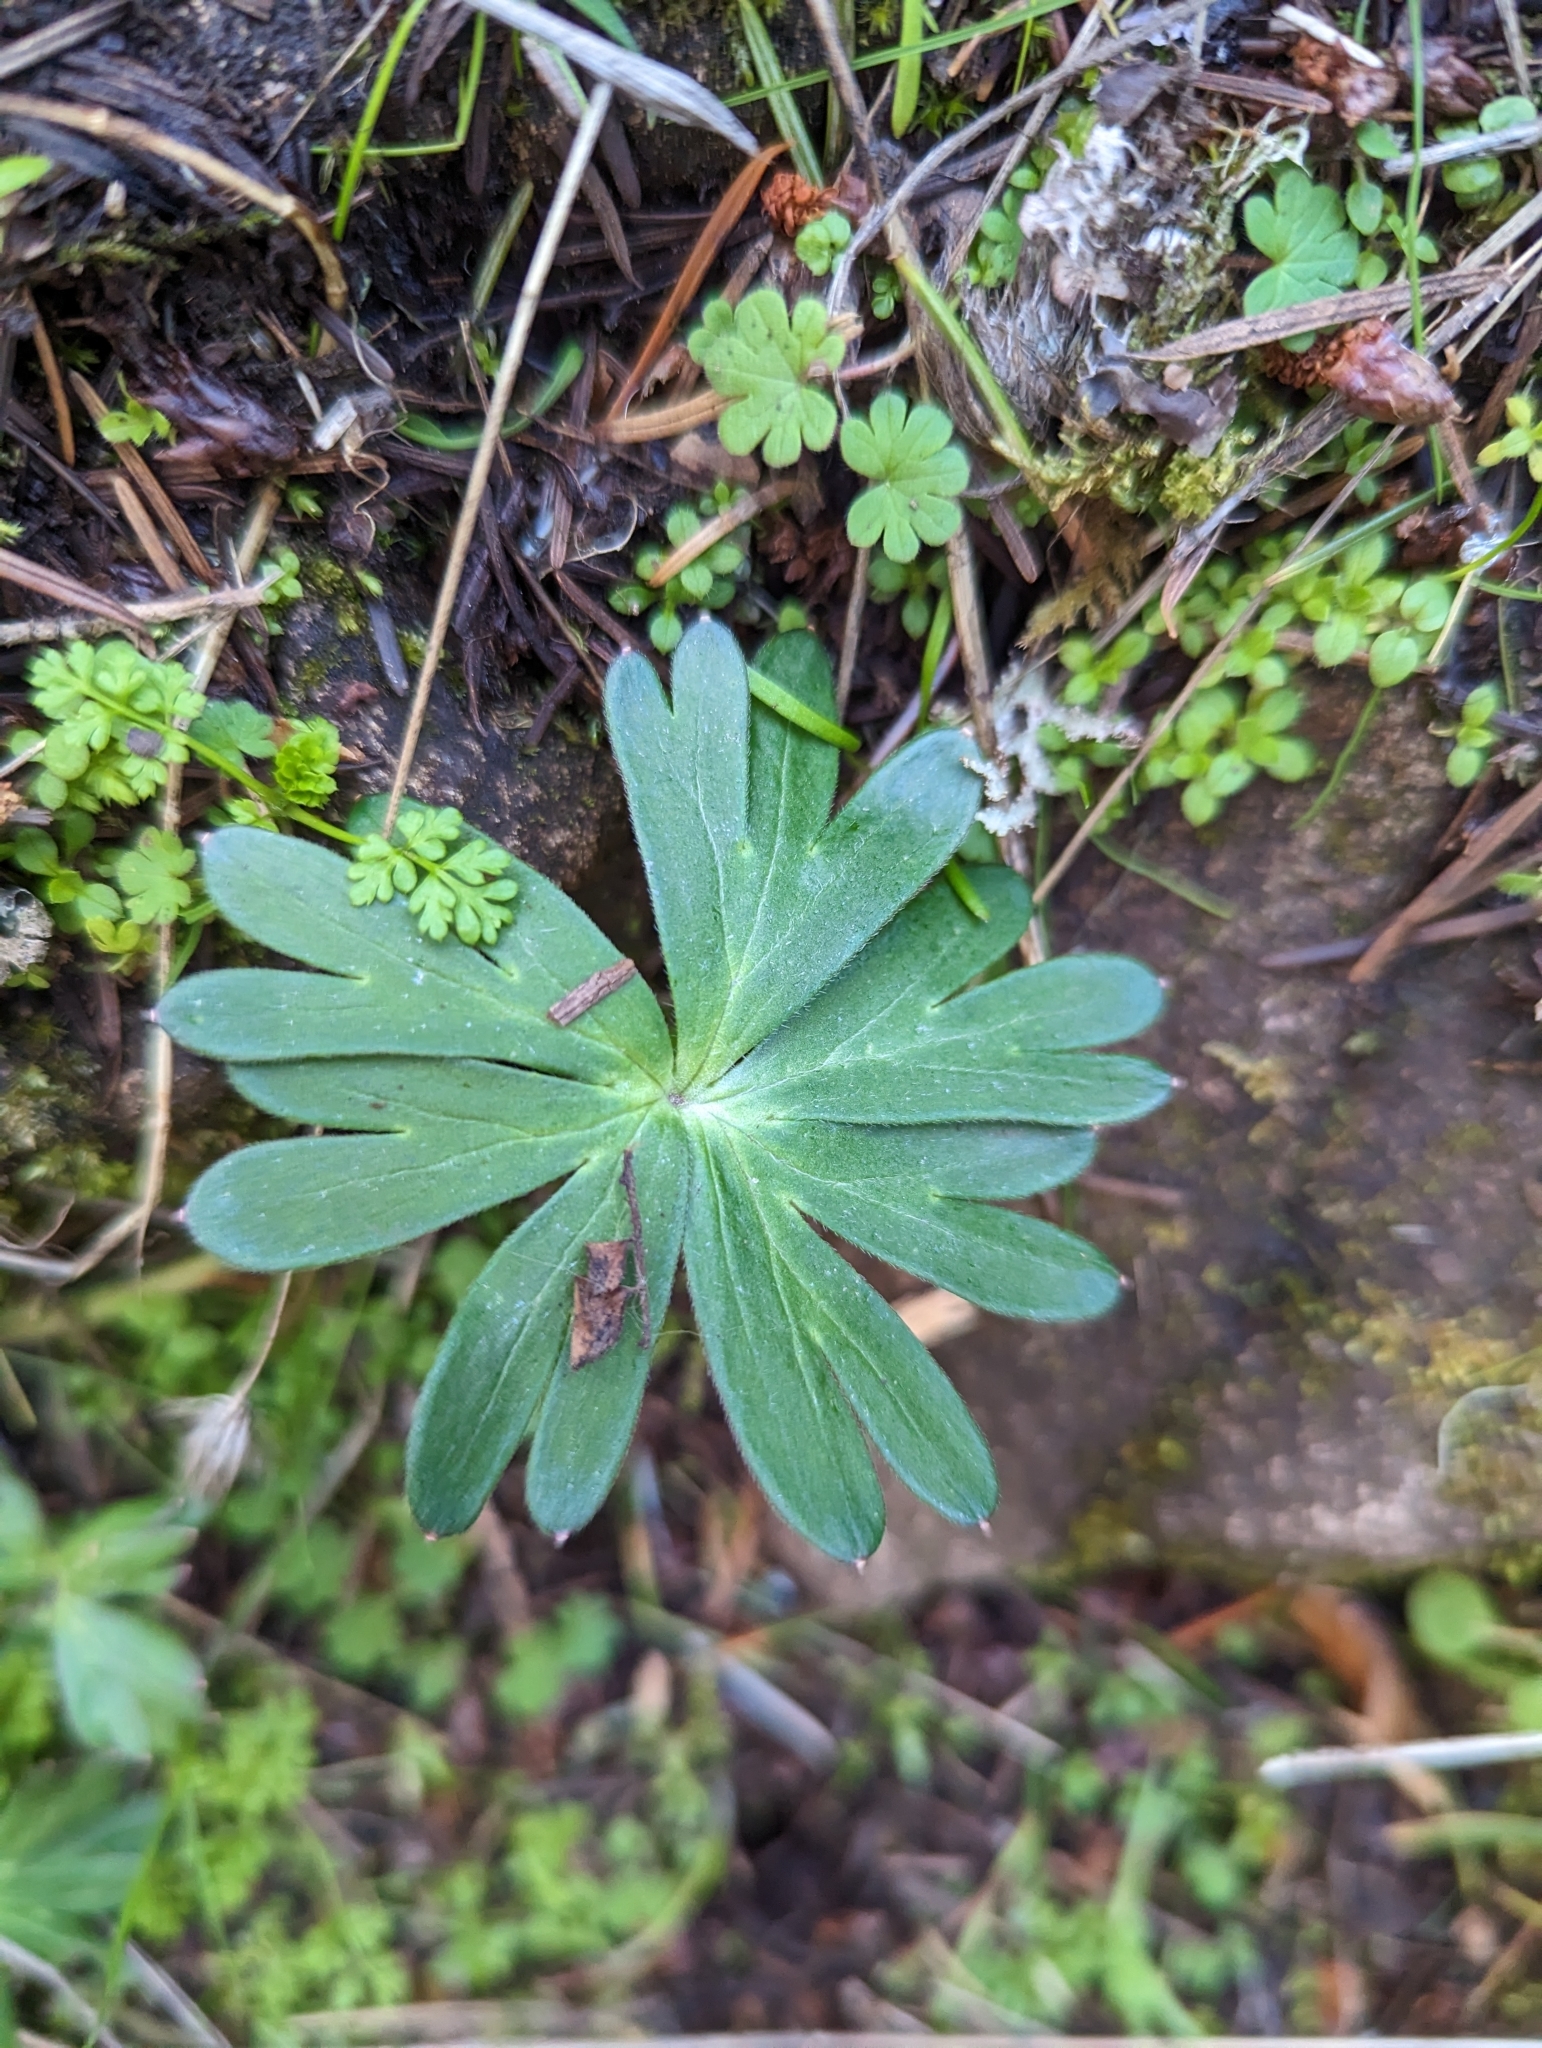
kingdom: Plantae
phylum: Tracheophyta
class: Magnoliopsida
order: Ranunculales
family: Ranunculaceae
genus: Delphinium
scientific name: Delphinium menziesii
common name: Menzies's larkspur
